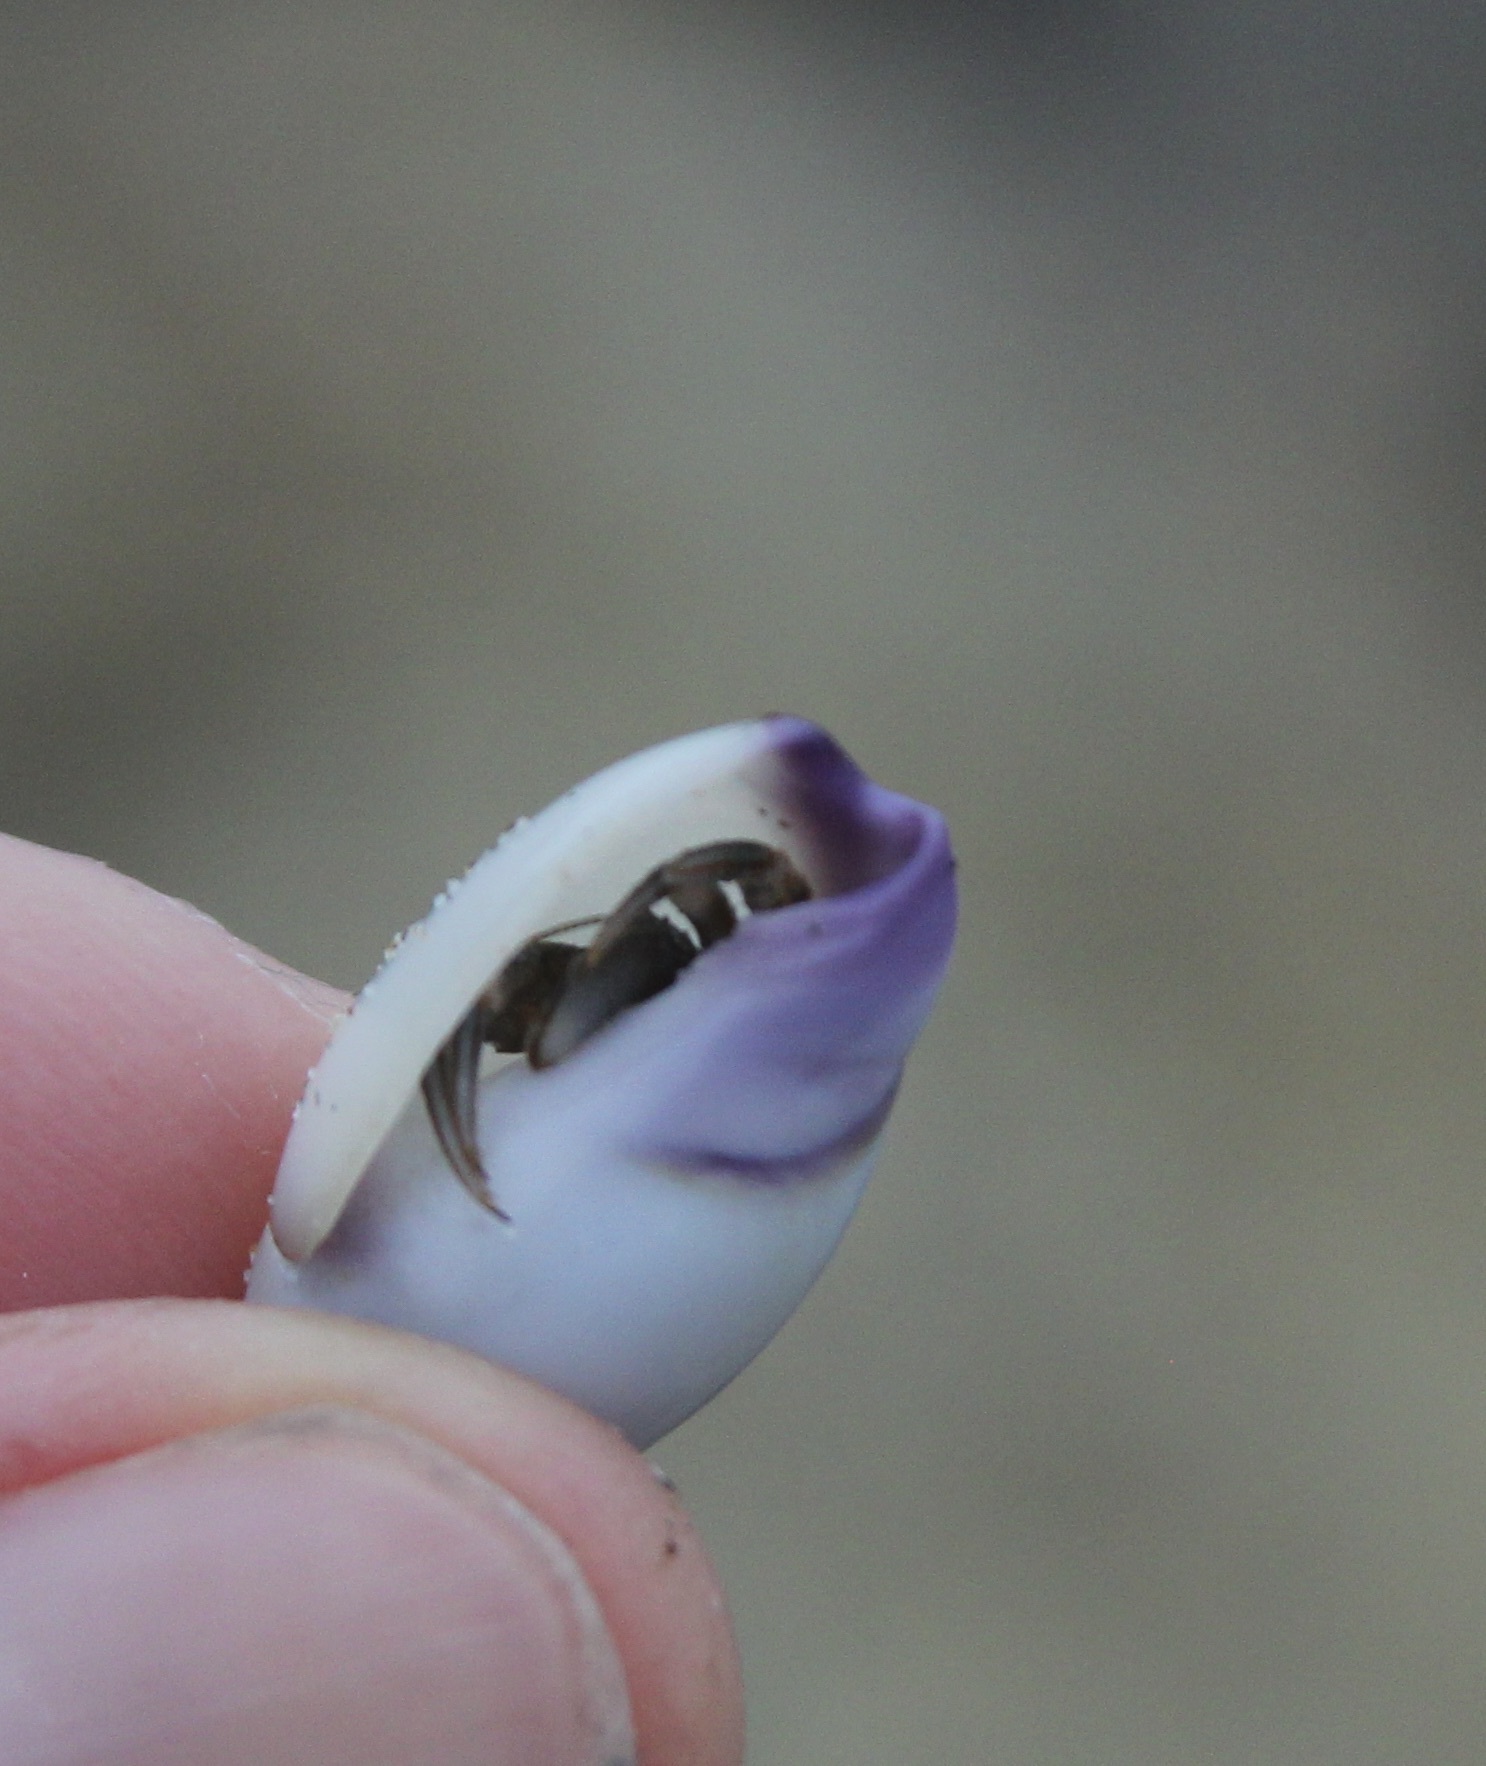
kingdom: Animalia
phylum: Mollusca
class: Gastropoda
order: Neogastropoda
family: Olividae
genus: Callianax
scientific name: Callianax biplicata
